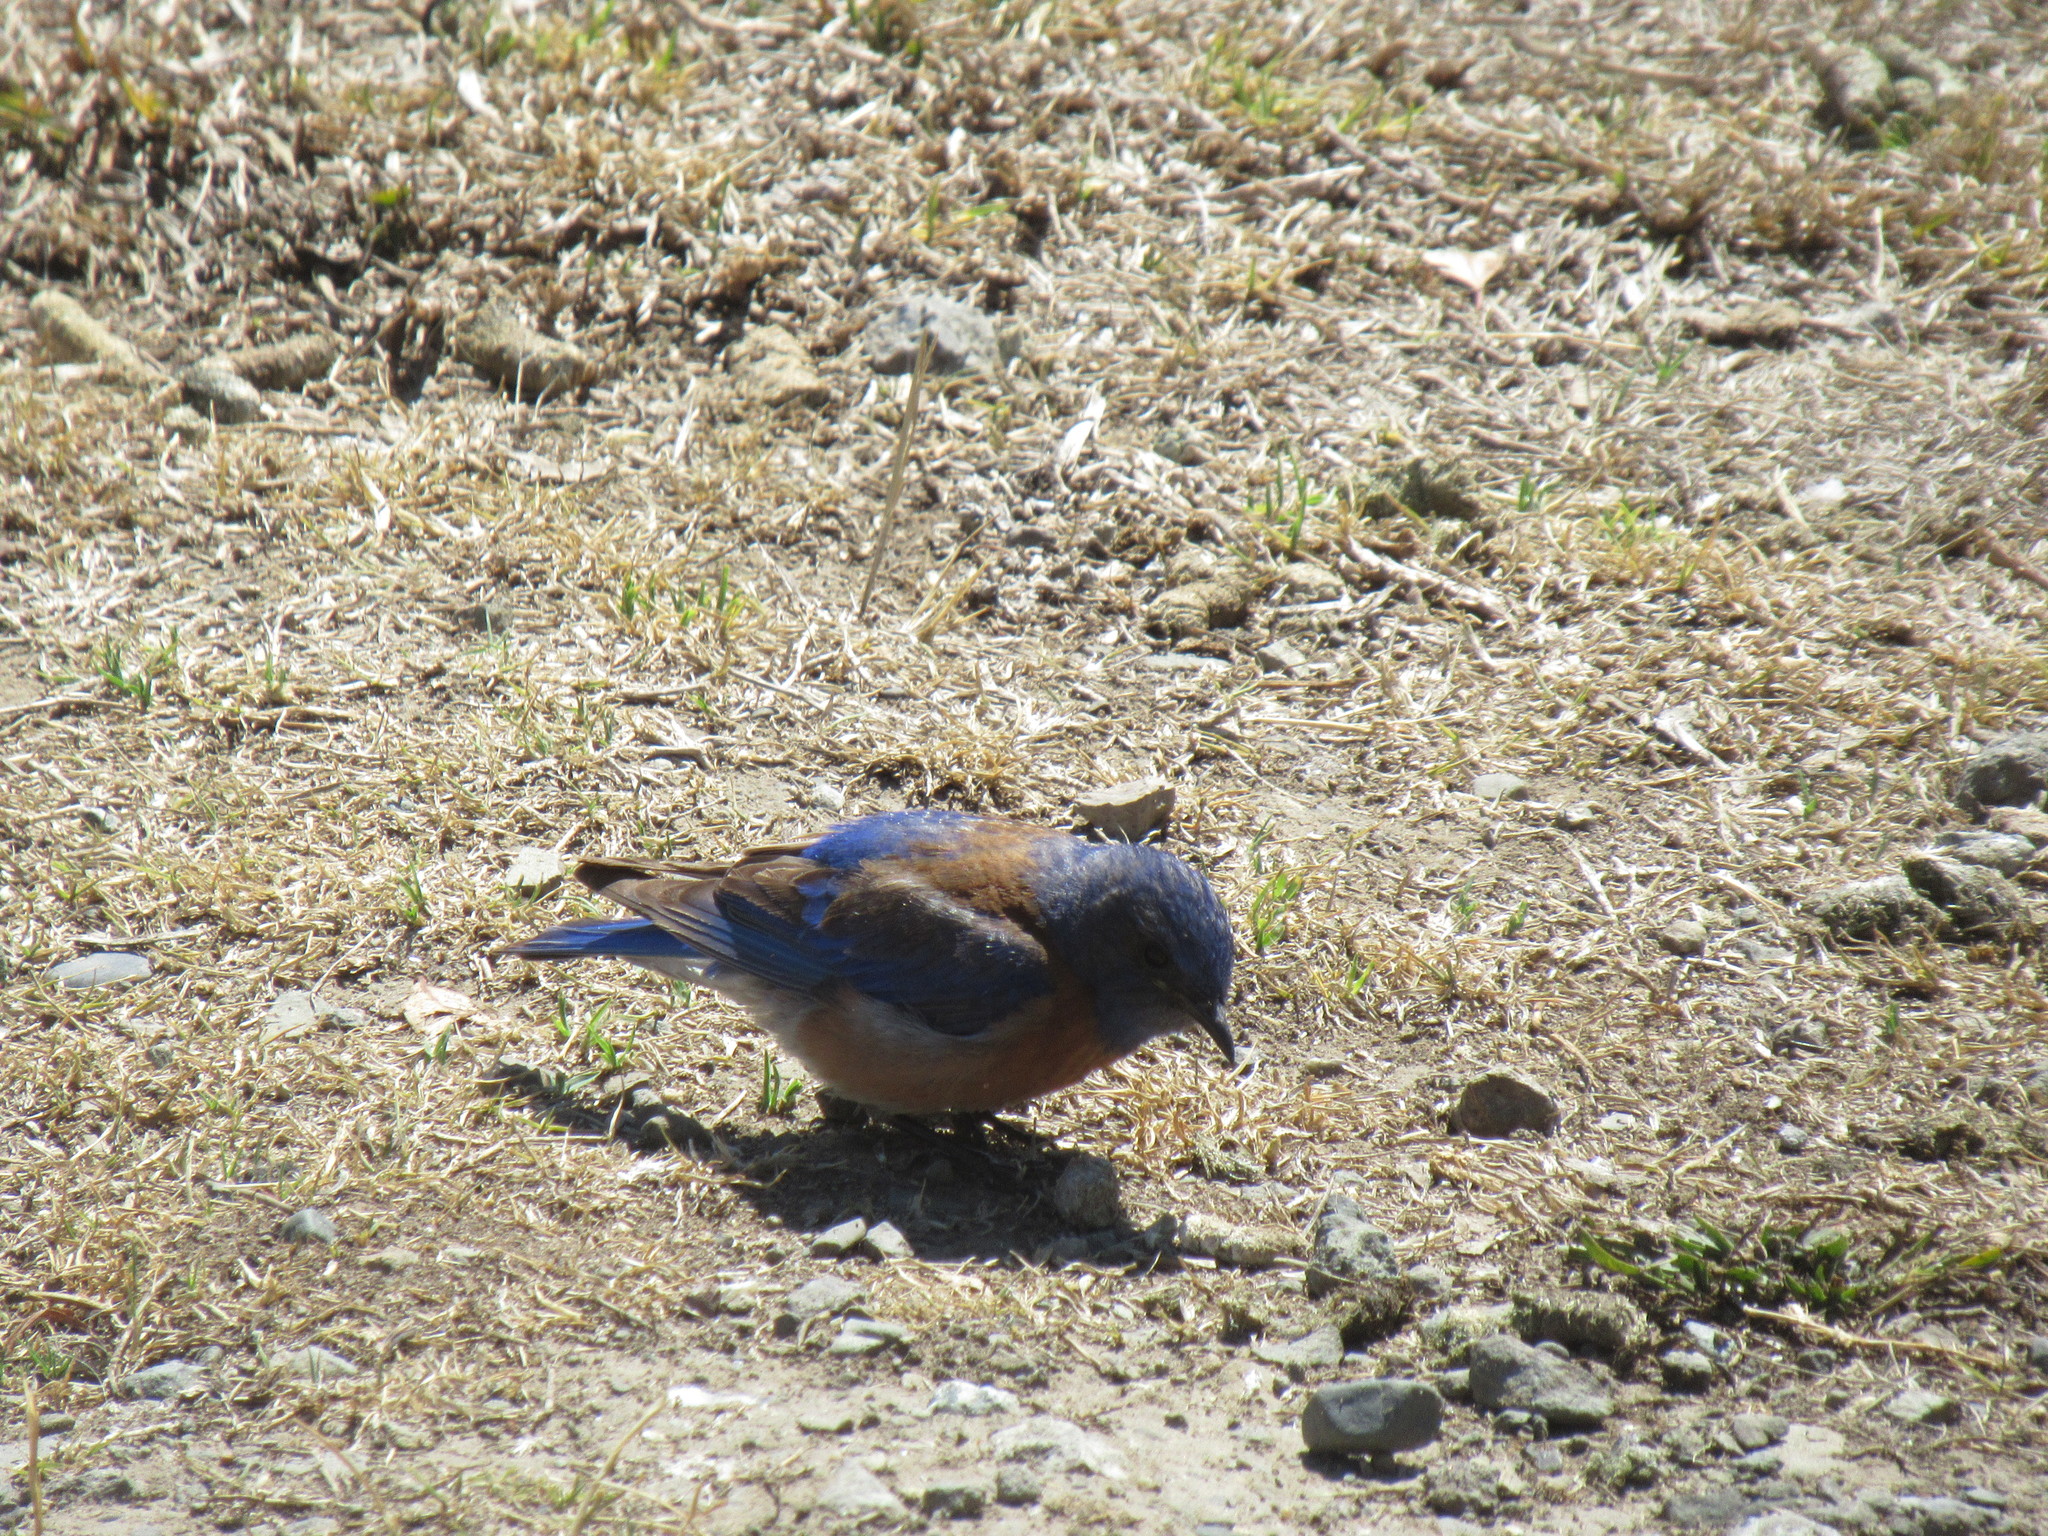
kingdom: Animalia
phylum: Chordata
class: Aves
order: Passeriformes
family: Turdidae
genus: Sialia
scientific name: Sialia mexicana
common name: Western bluebird
